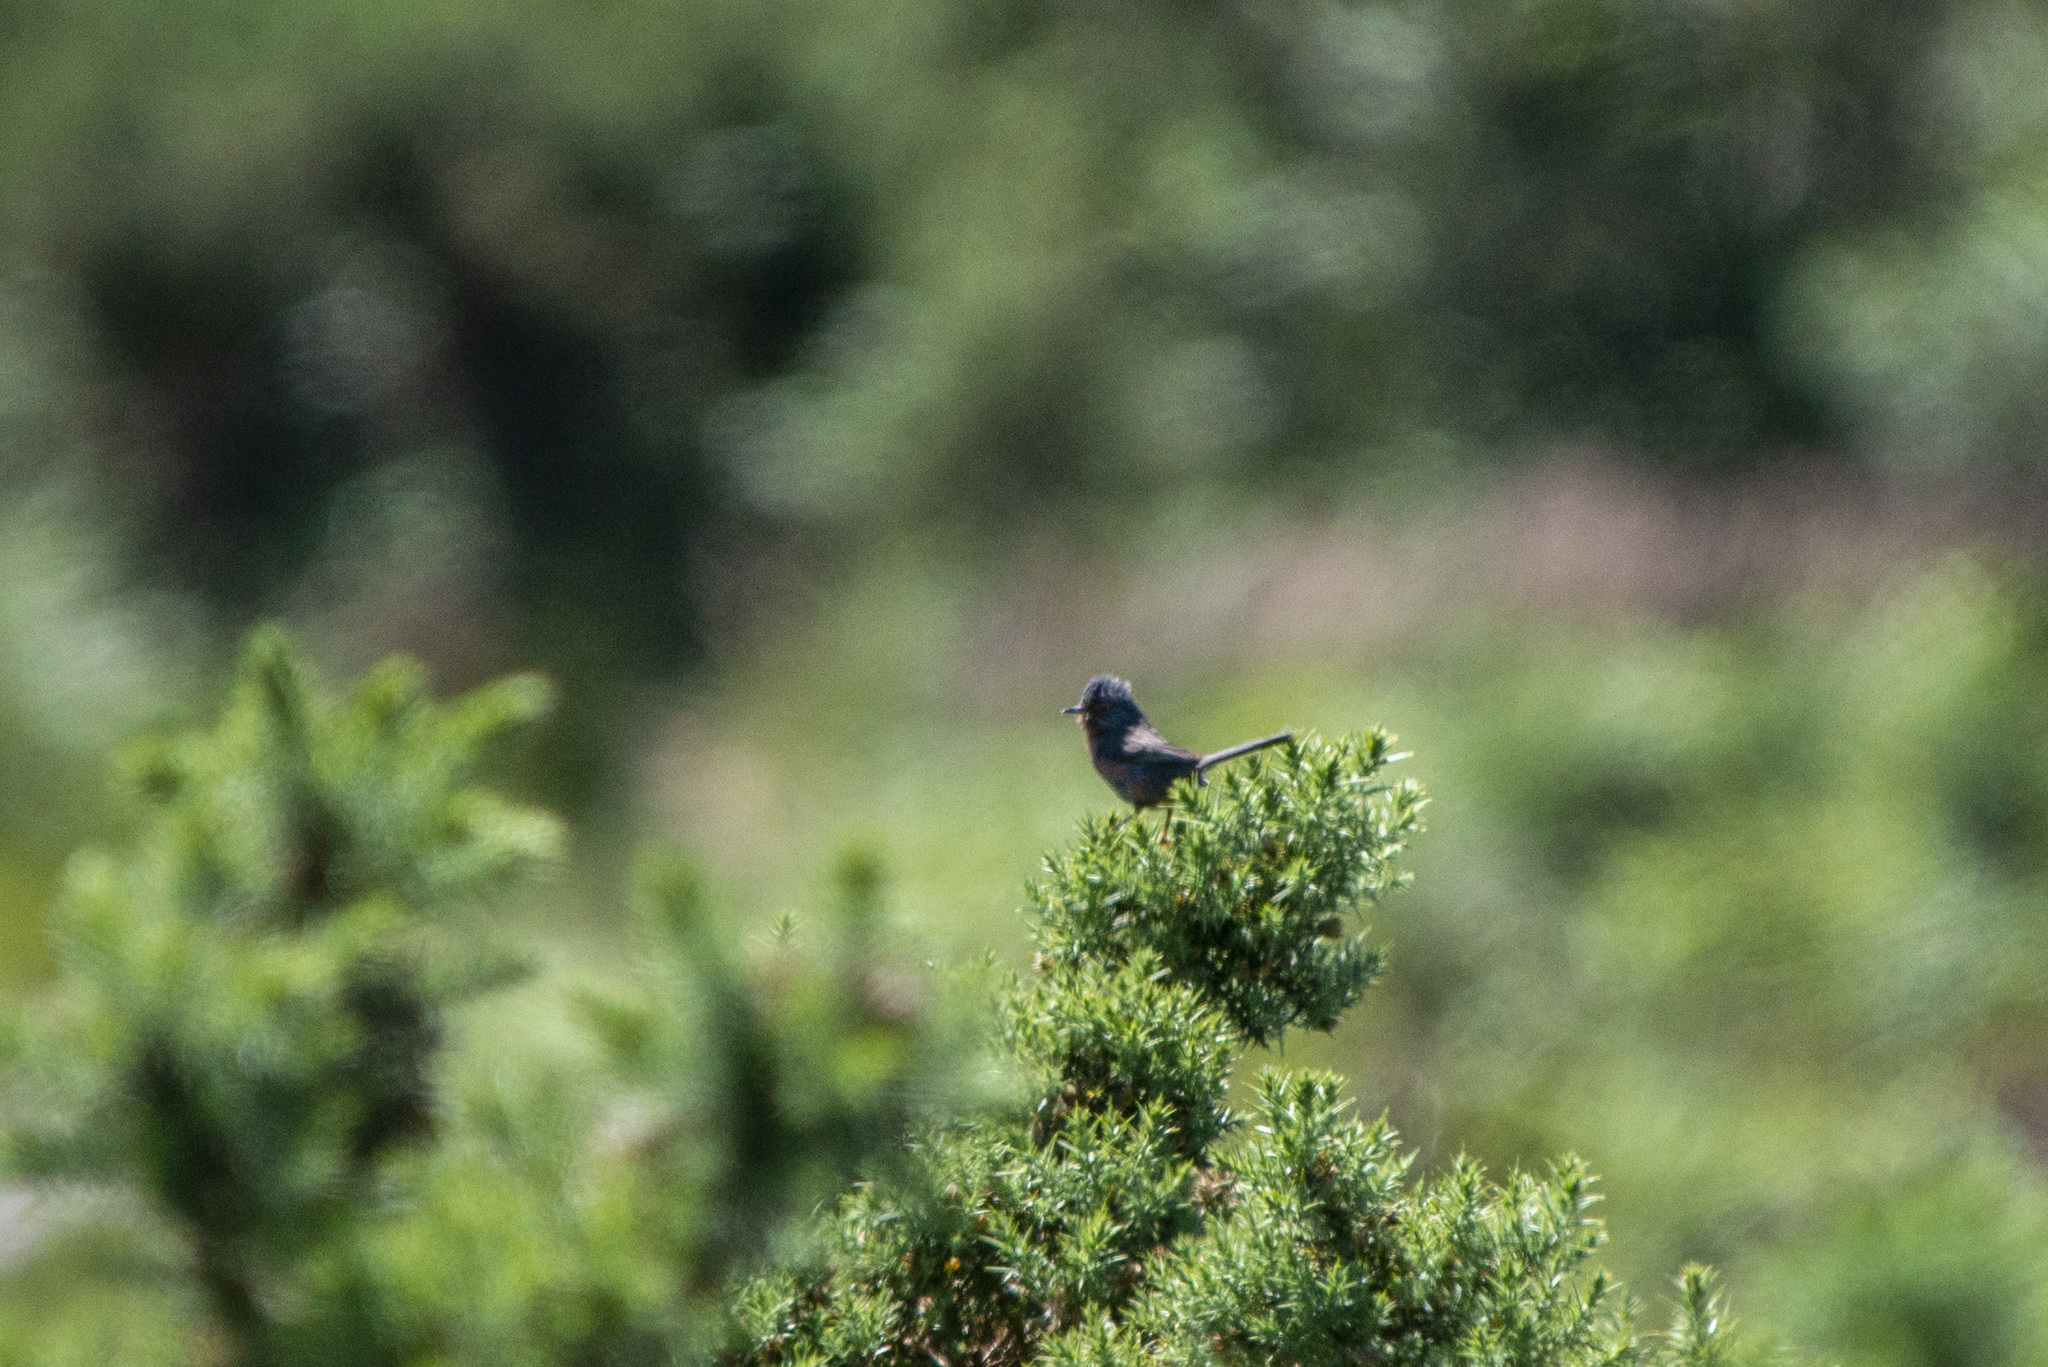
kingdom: Animalia
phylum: Chordata
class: Aves
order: Passeriformes
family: Sylviidae
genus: Sylvia
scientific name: Sylvia undata
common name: Dartford warbler
